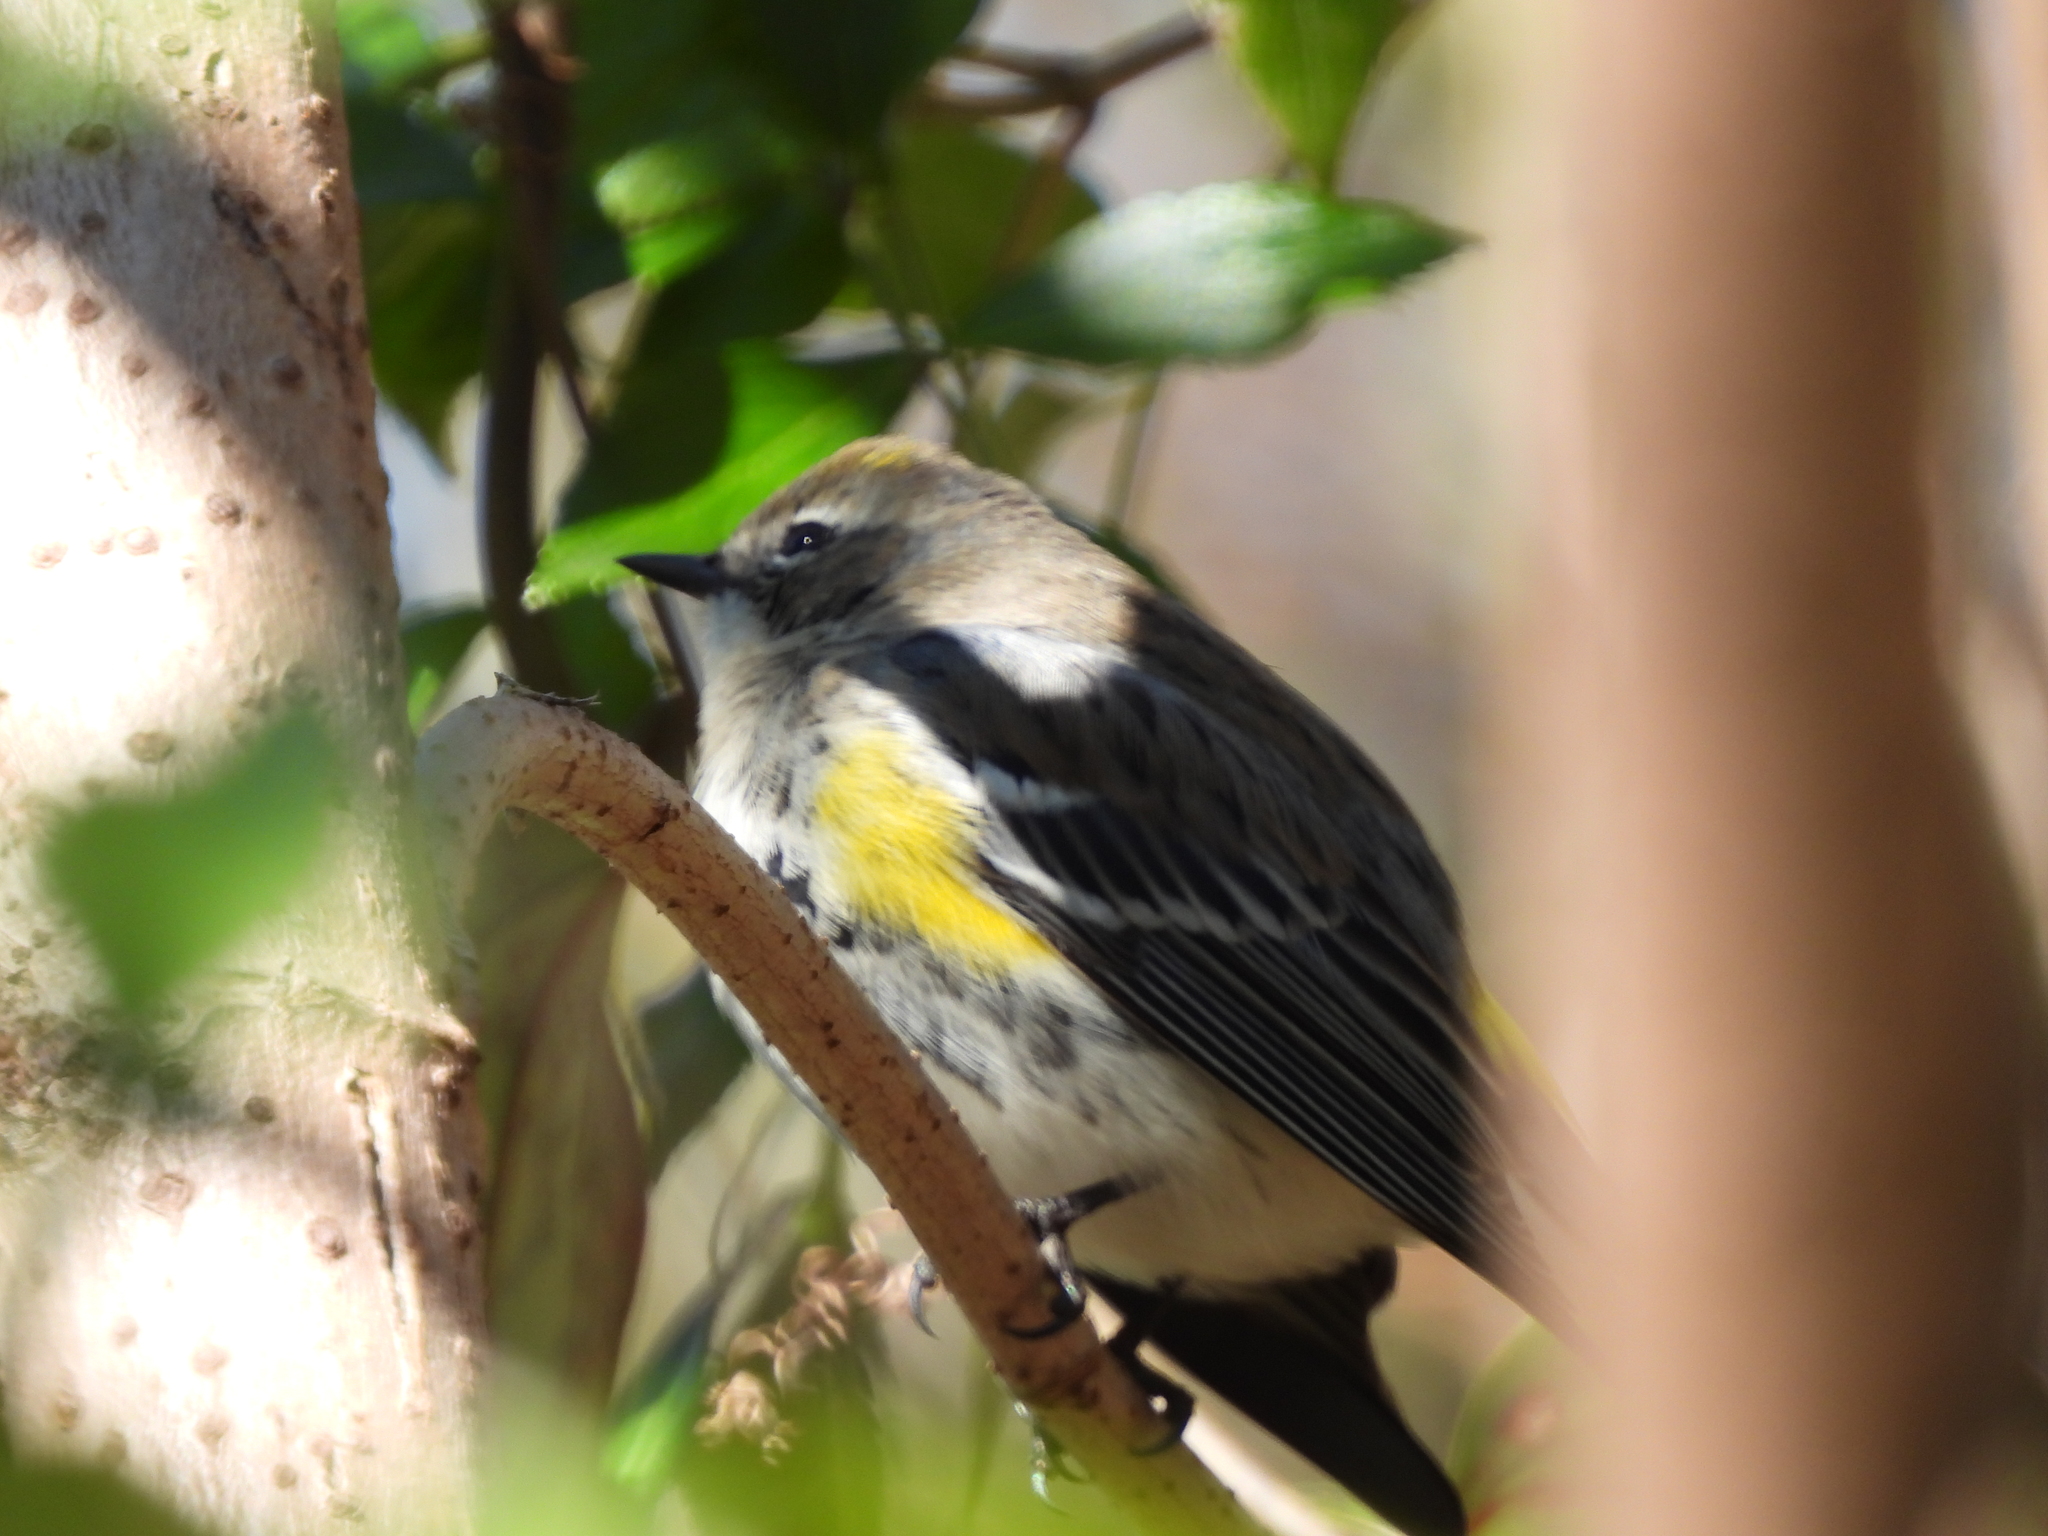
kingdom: Animalia
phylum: Chordata
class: Aves
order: Passeriformes
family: Parulidae
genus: Setophaga
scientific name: Setophaga coronata
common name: Myrtle warbler
